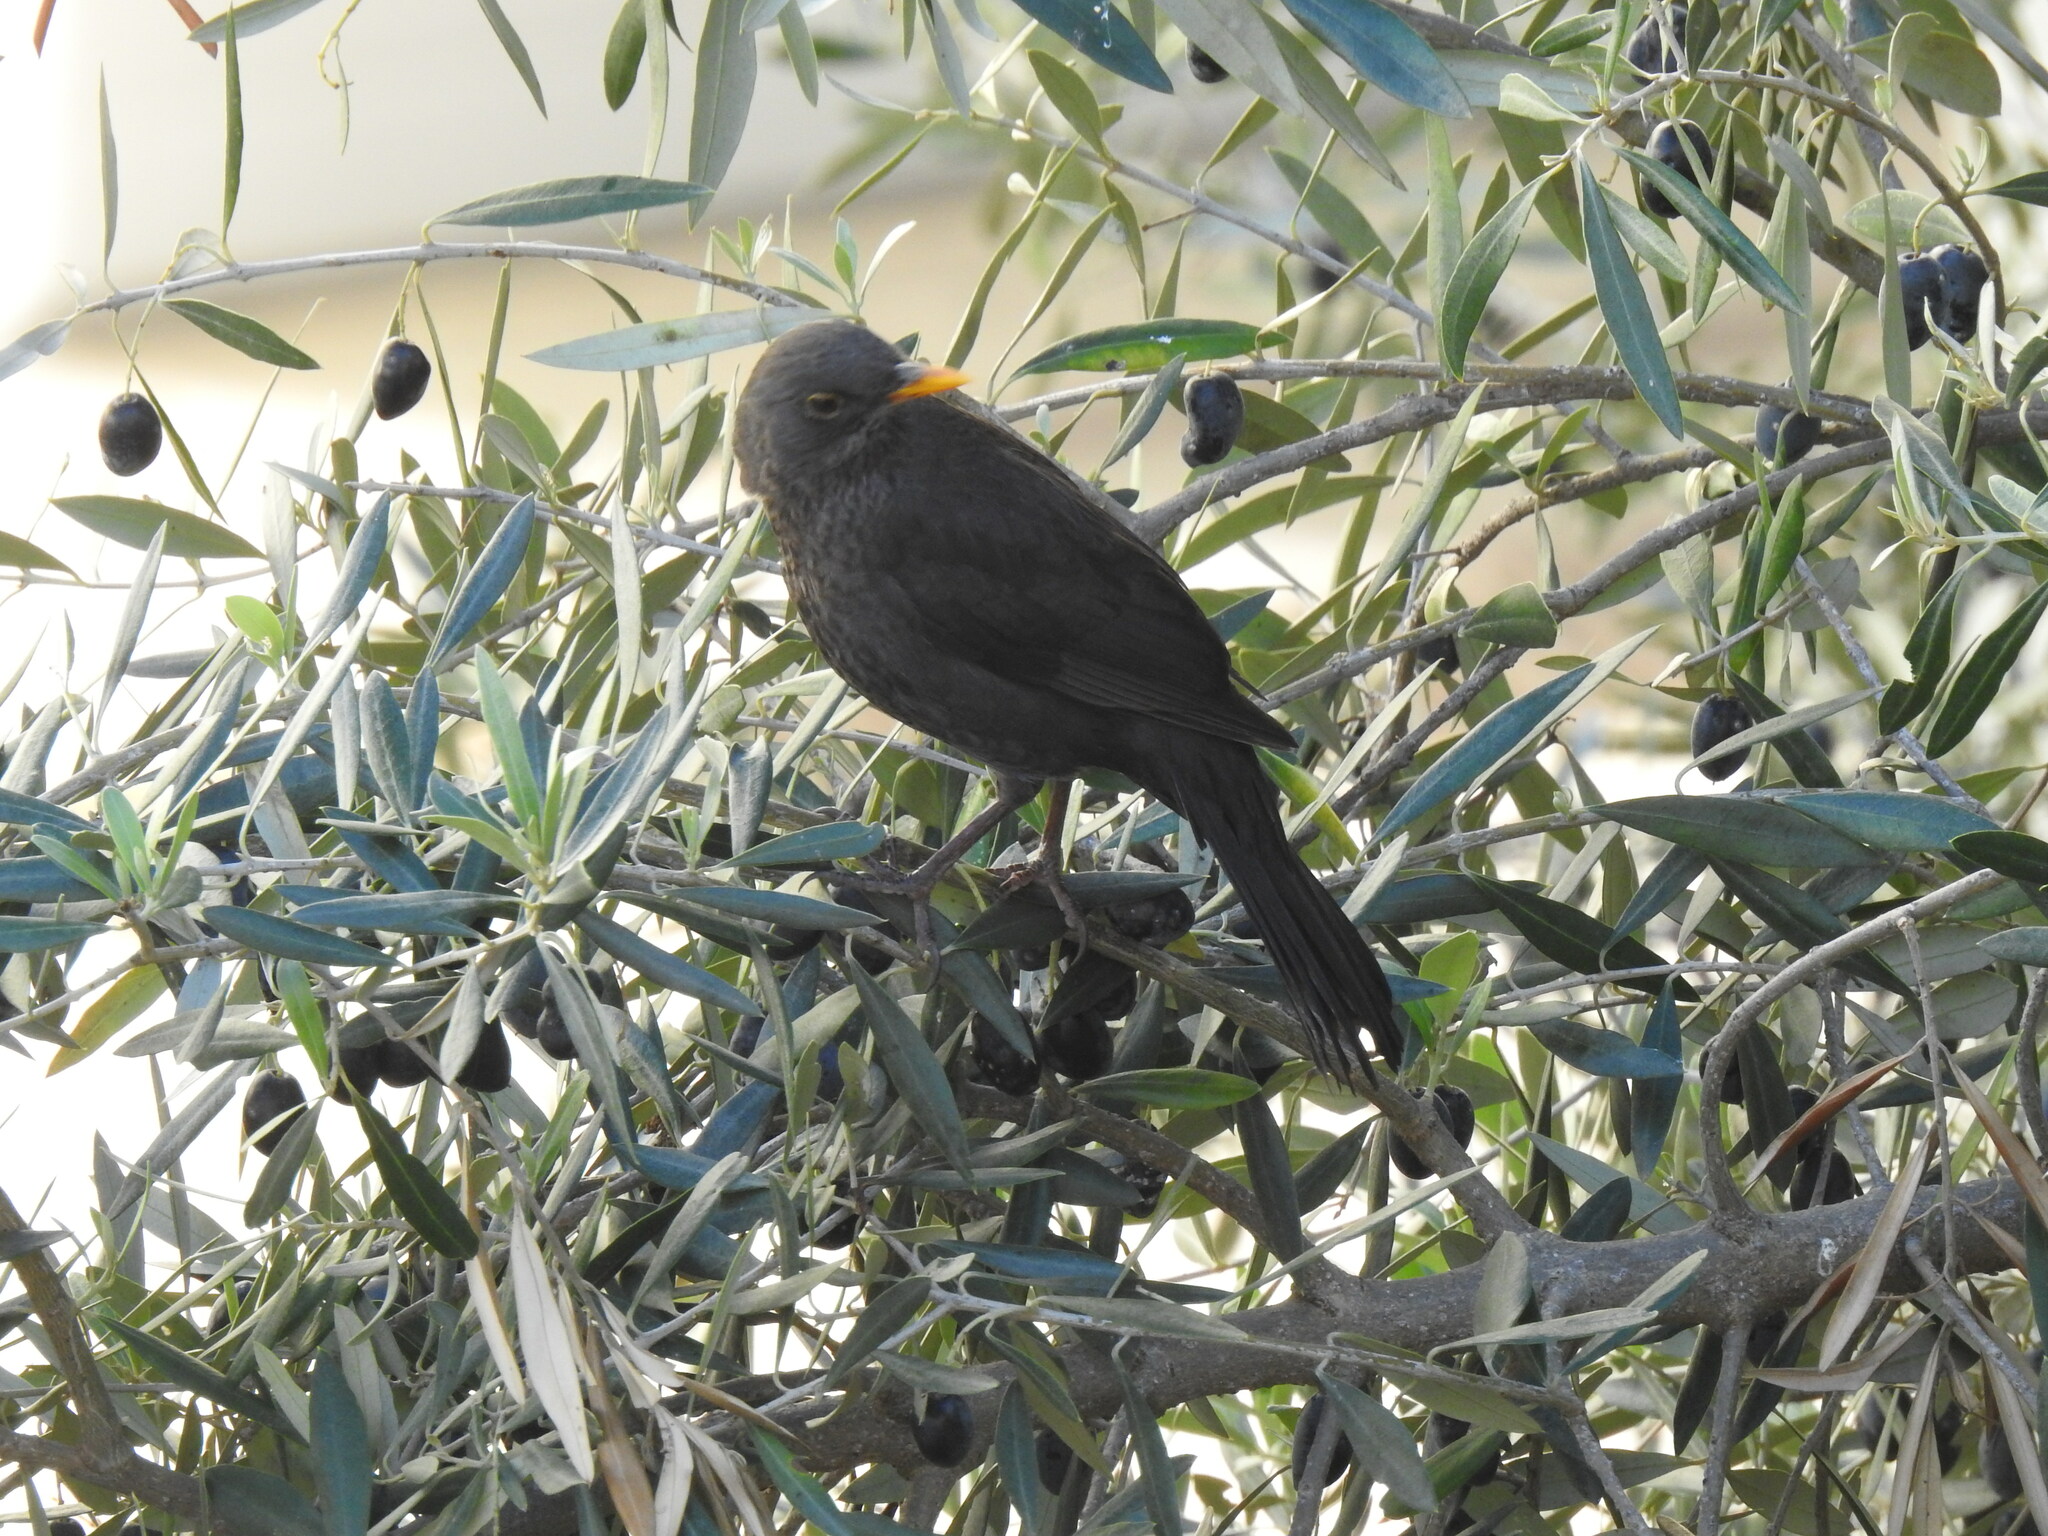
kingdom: Animalia
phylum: Chordata
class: Aves
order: Passeriformes
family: Turdidae
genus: Turdus
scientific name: Turdus merula
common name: Common blackbird
